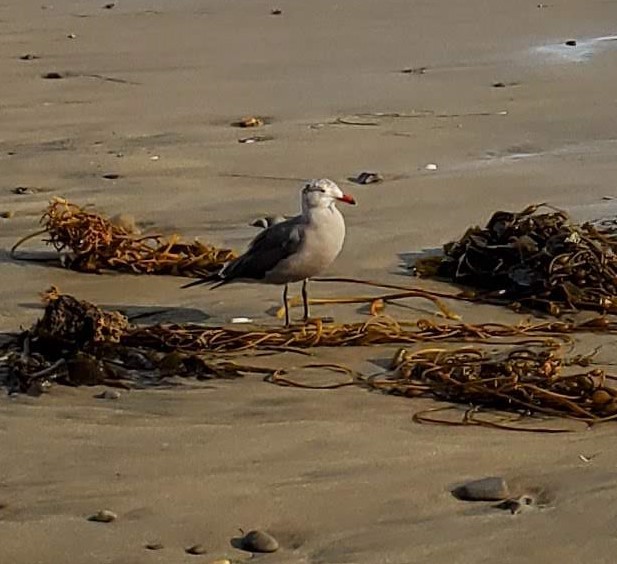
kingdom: Animalia
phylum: Chordata
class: Aves
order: Charadriiformes
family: Laridae
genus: Larus
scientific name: Larus heermanni
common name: Heermann's gull
